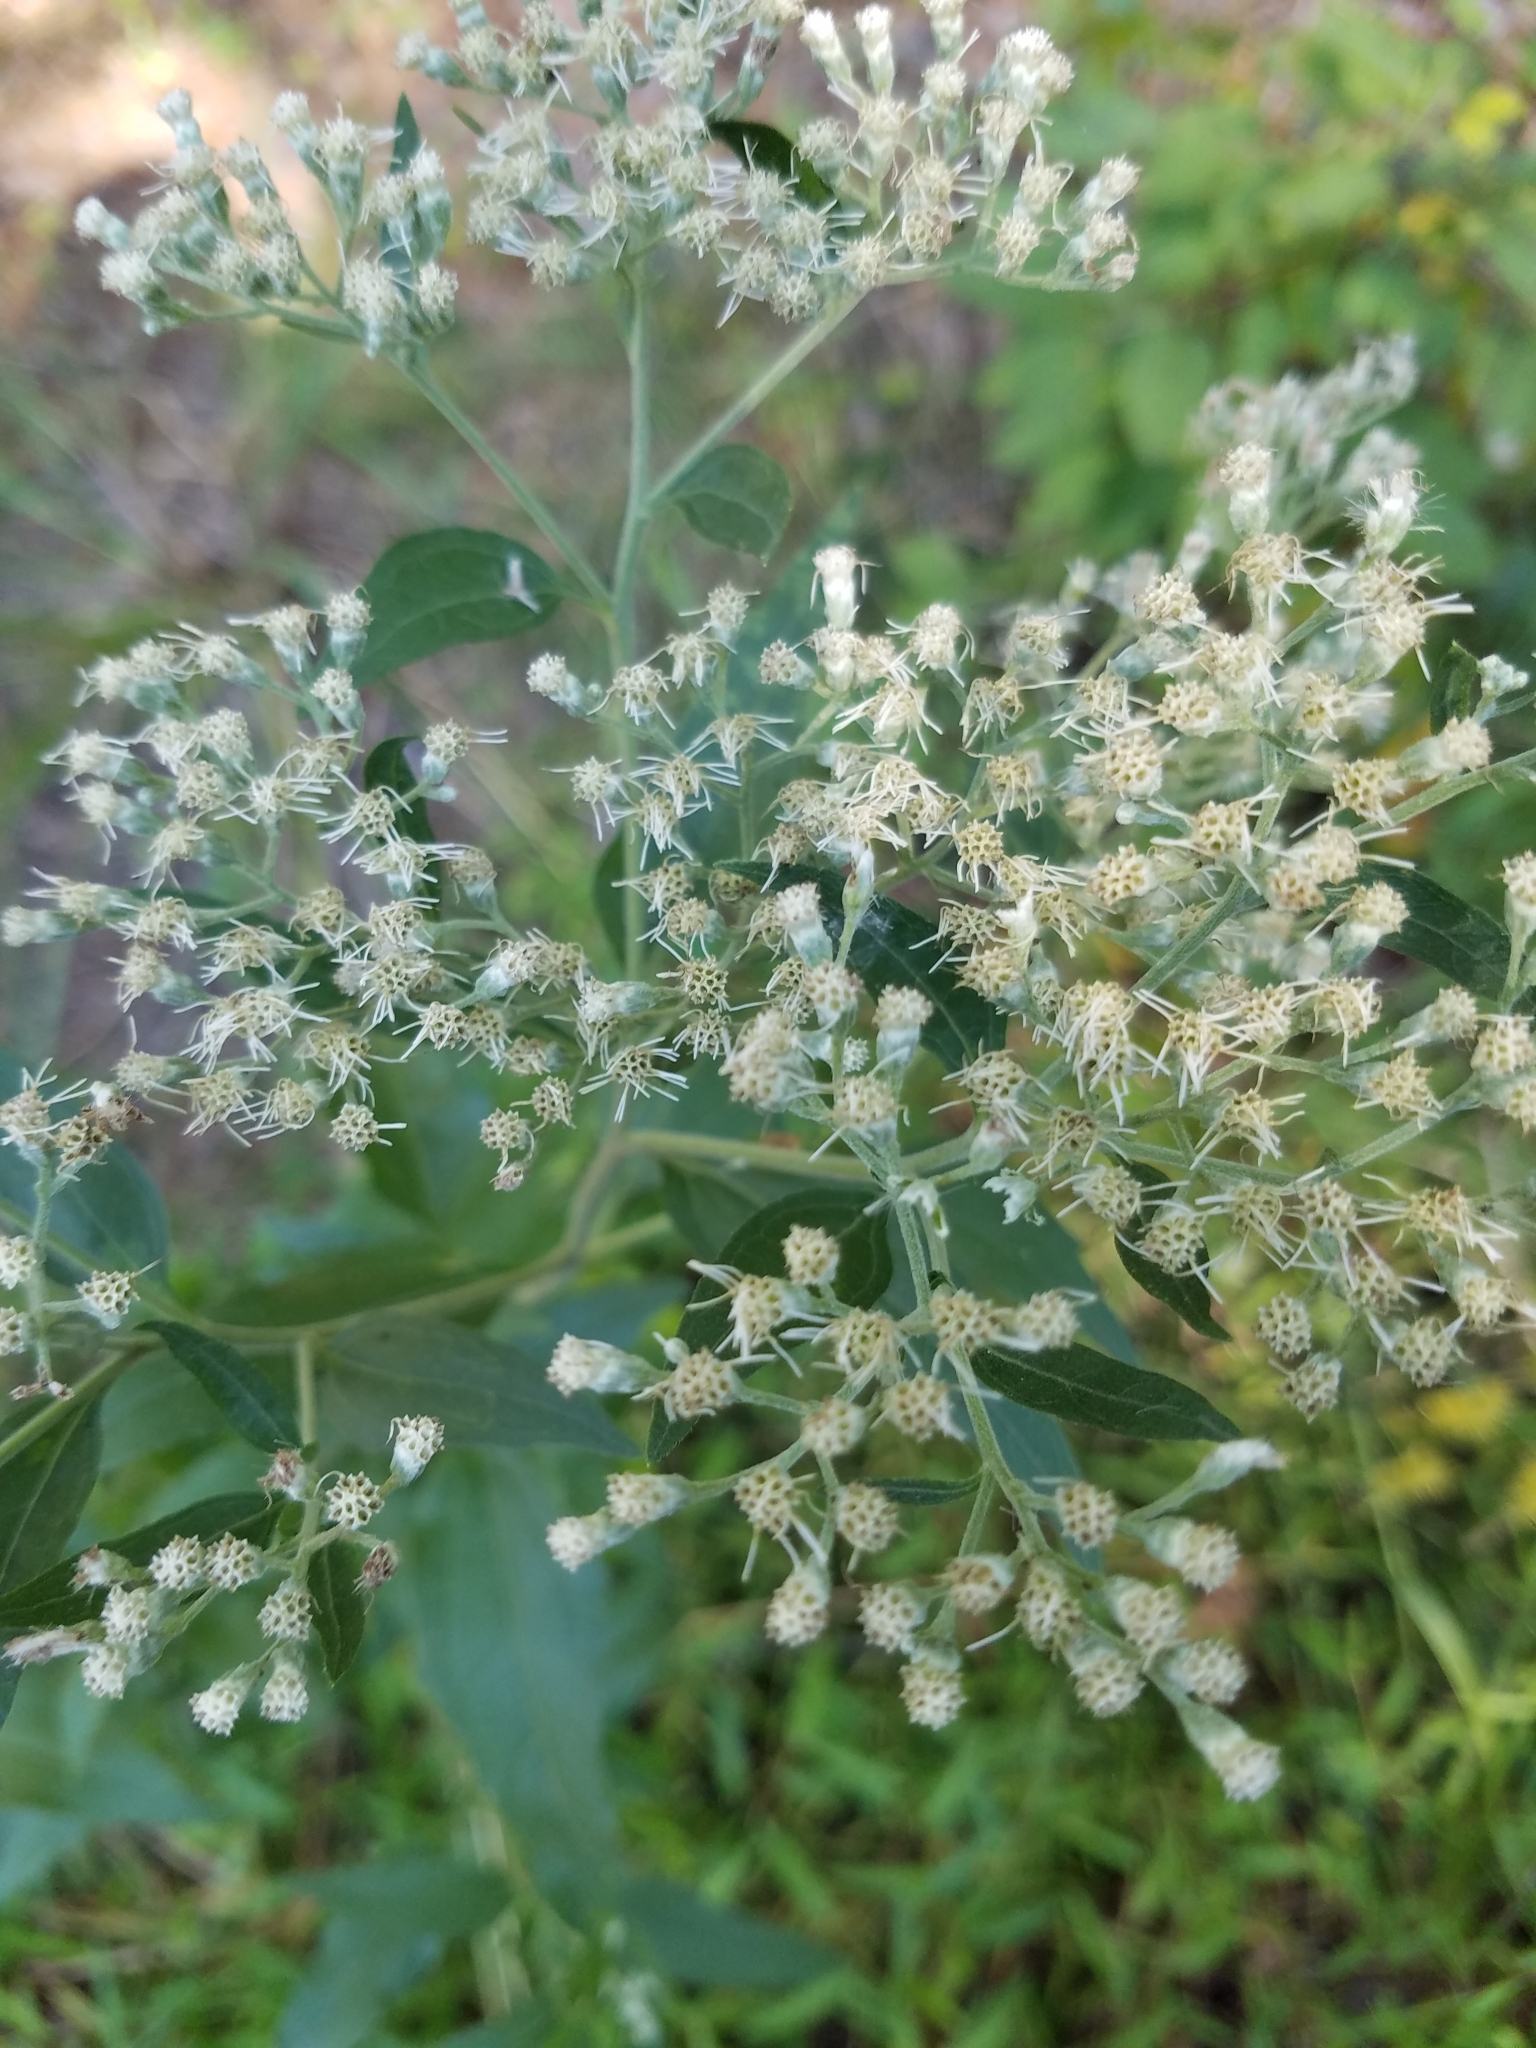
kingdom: Plantae
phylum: Tracheophyta
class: Magnoliopsida
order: Asterales
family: Asteraceae
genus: Eupatorium
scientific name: Eupatorium serotinum
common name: Late boneset
